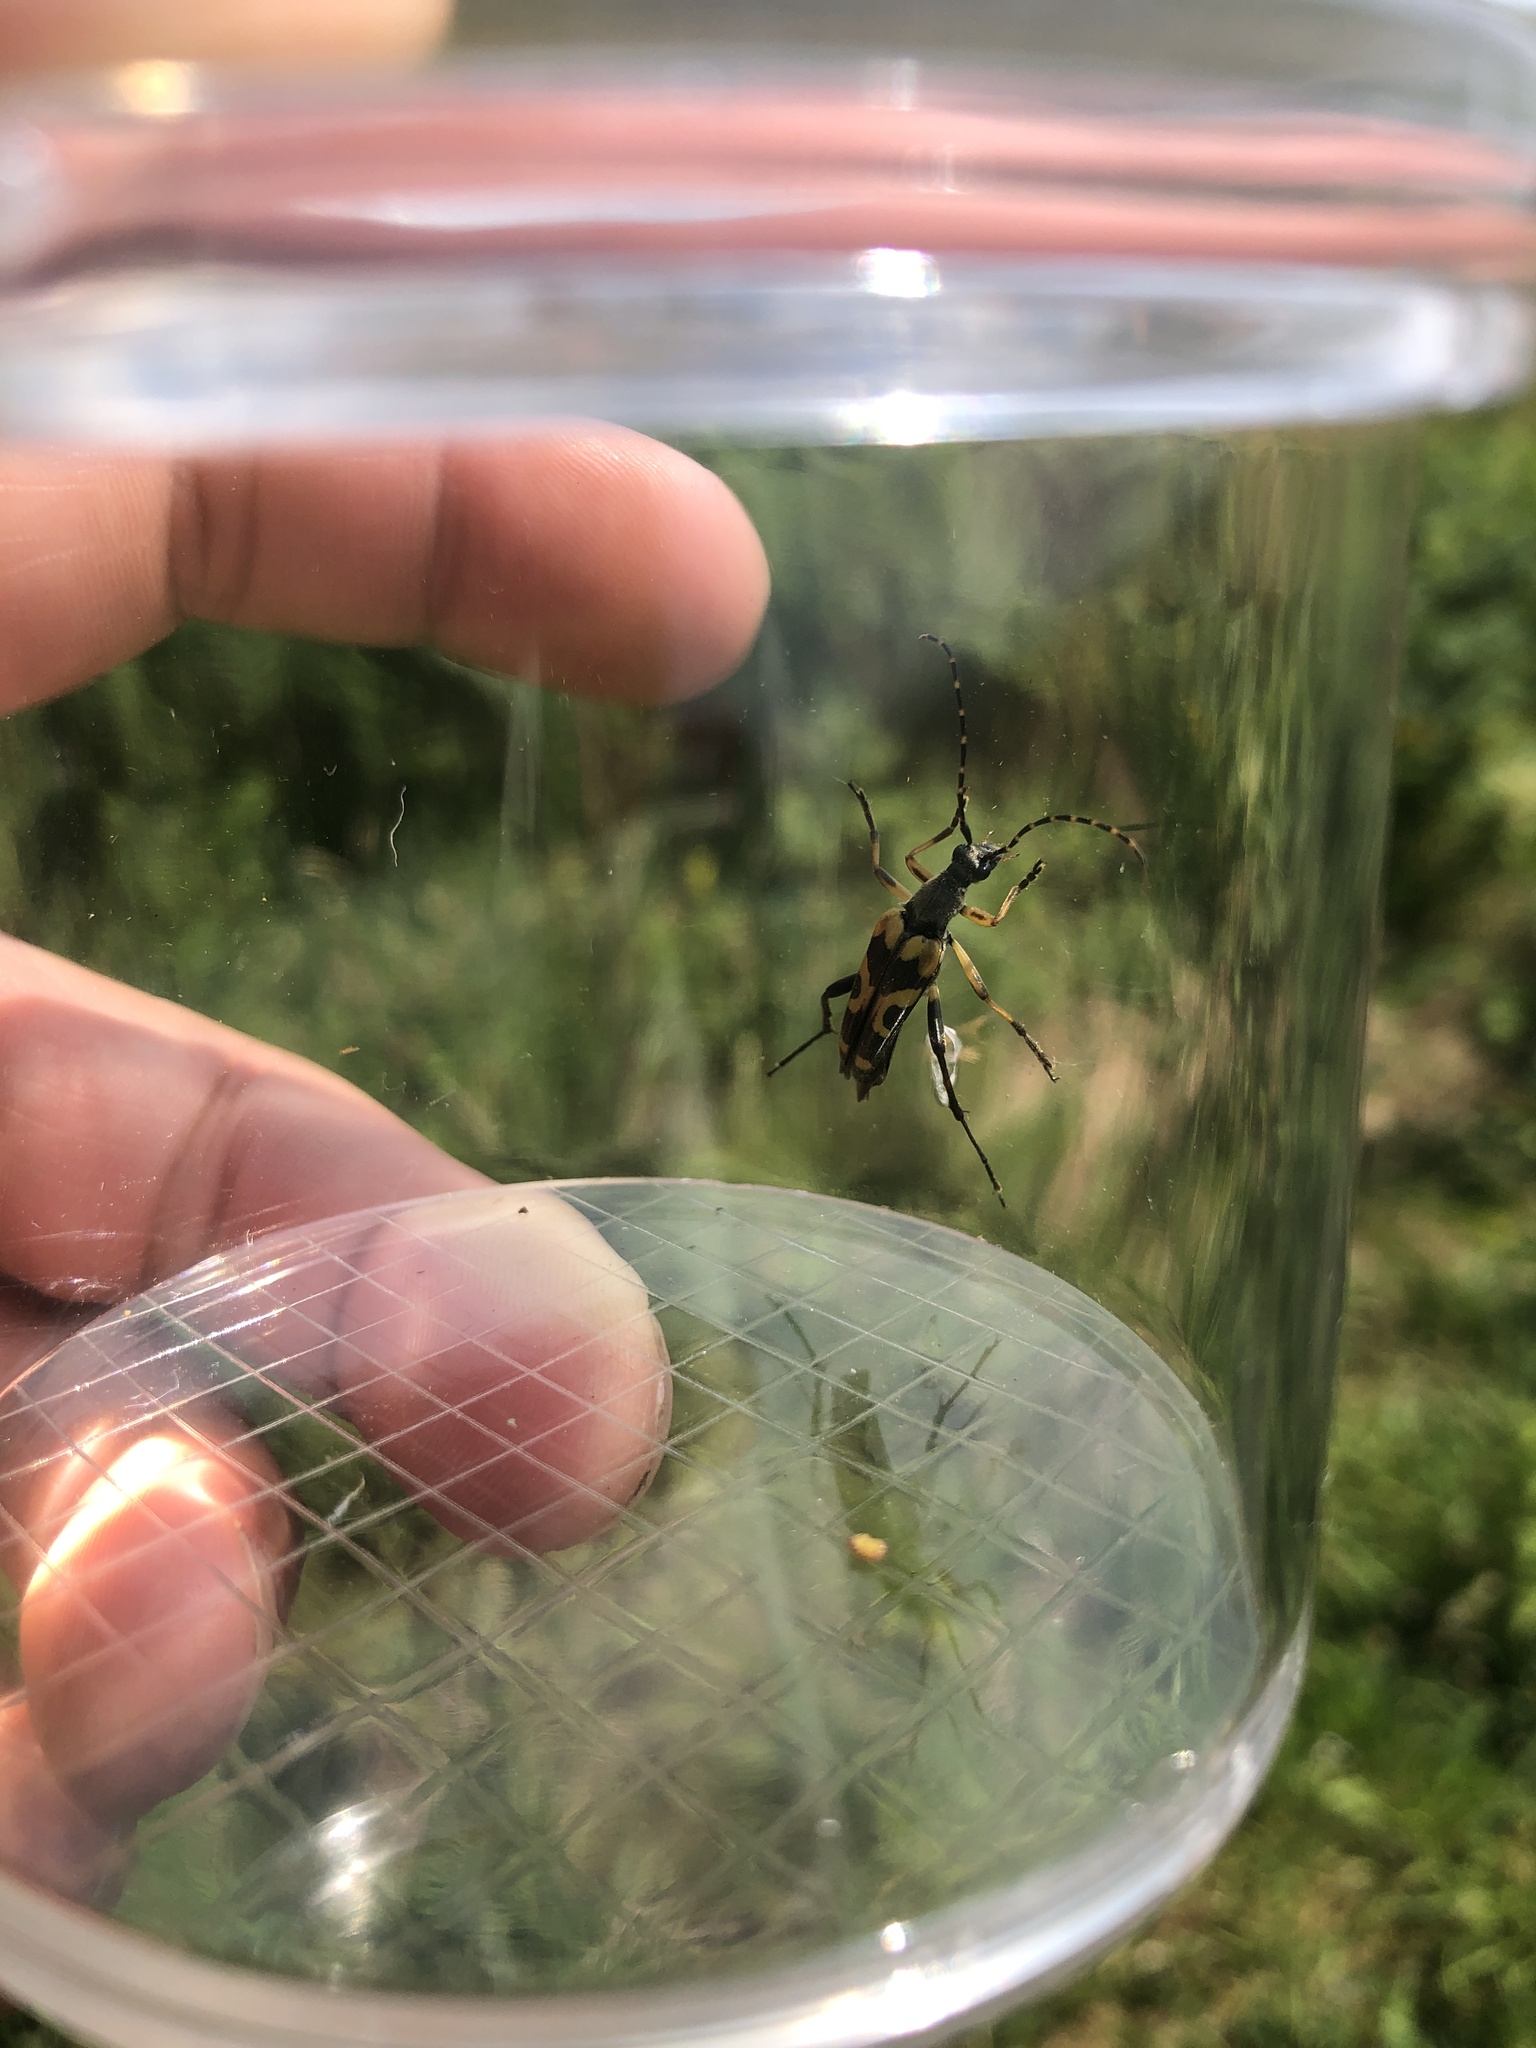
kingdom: Animalia
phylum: Arthropoda
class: Insecta
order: Coleoptera
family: Cerambycidae
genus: Rutpela
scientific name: Rutpela maculata
